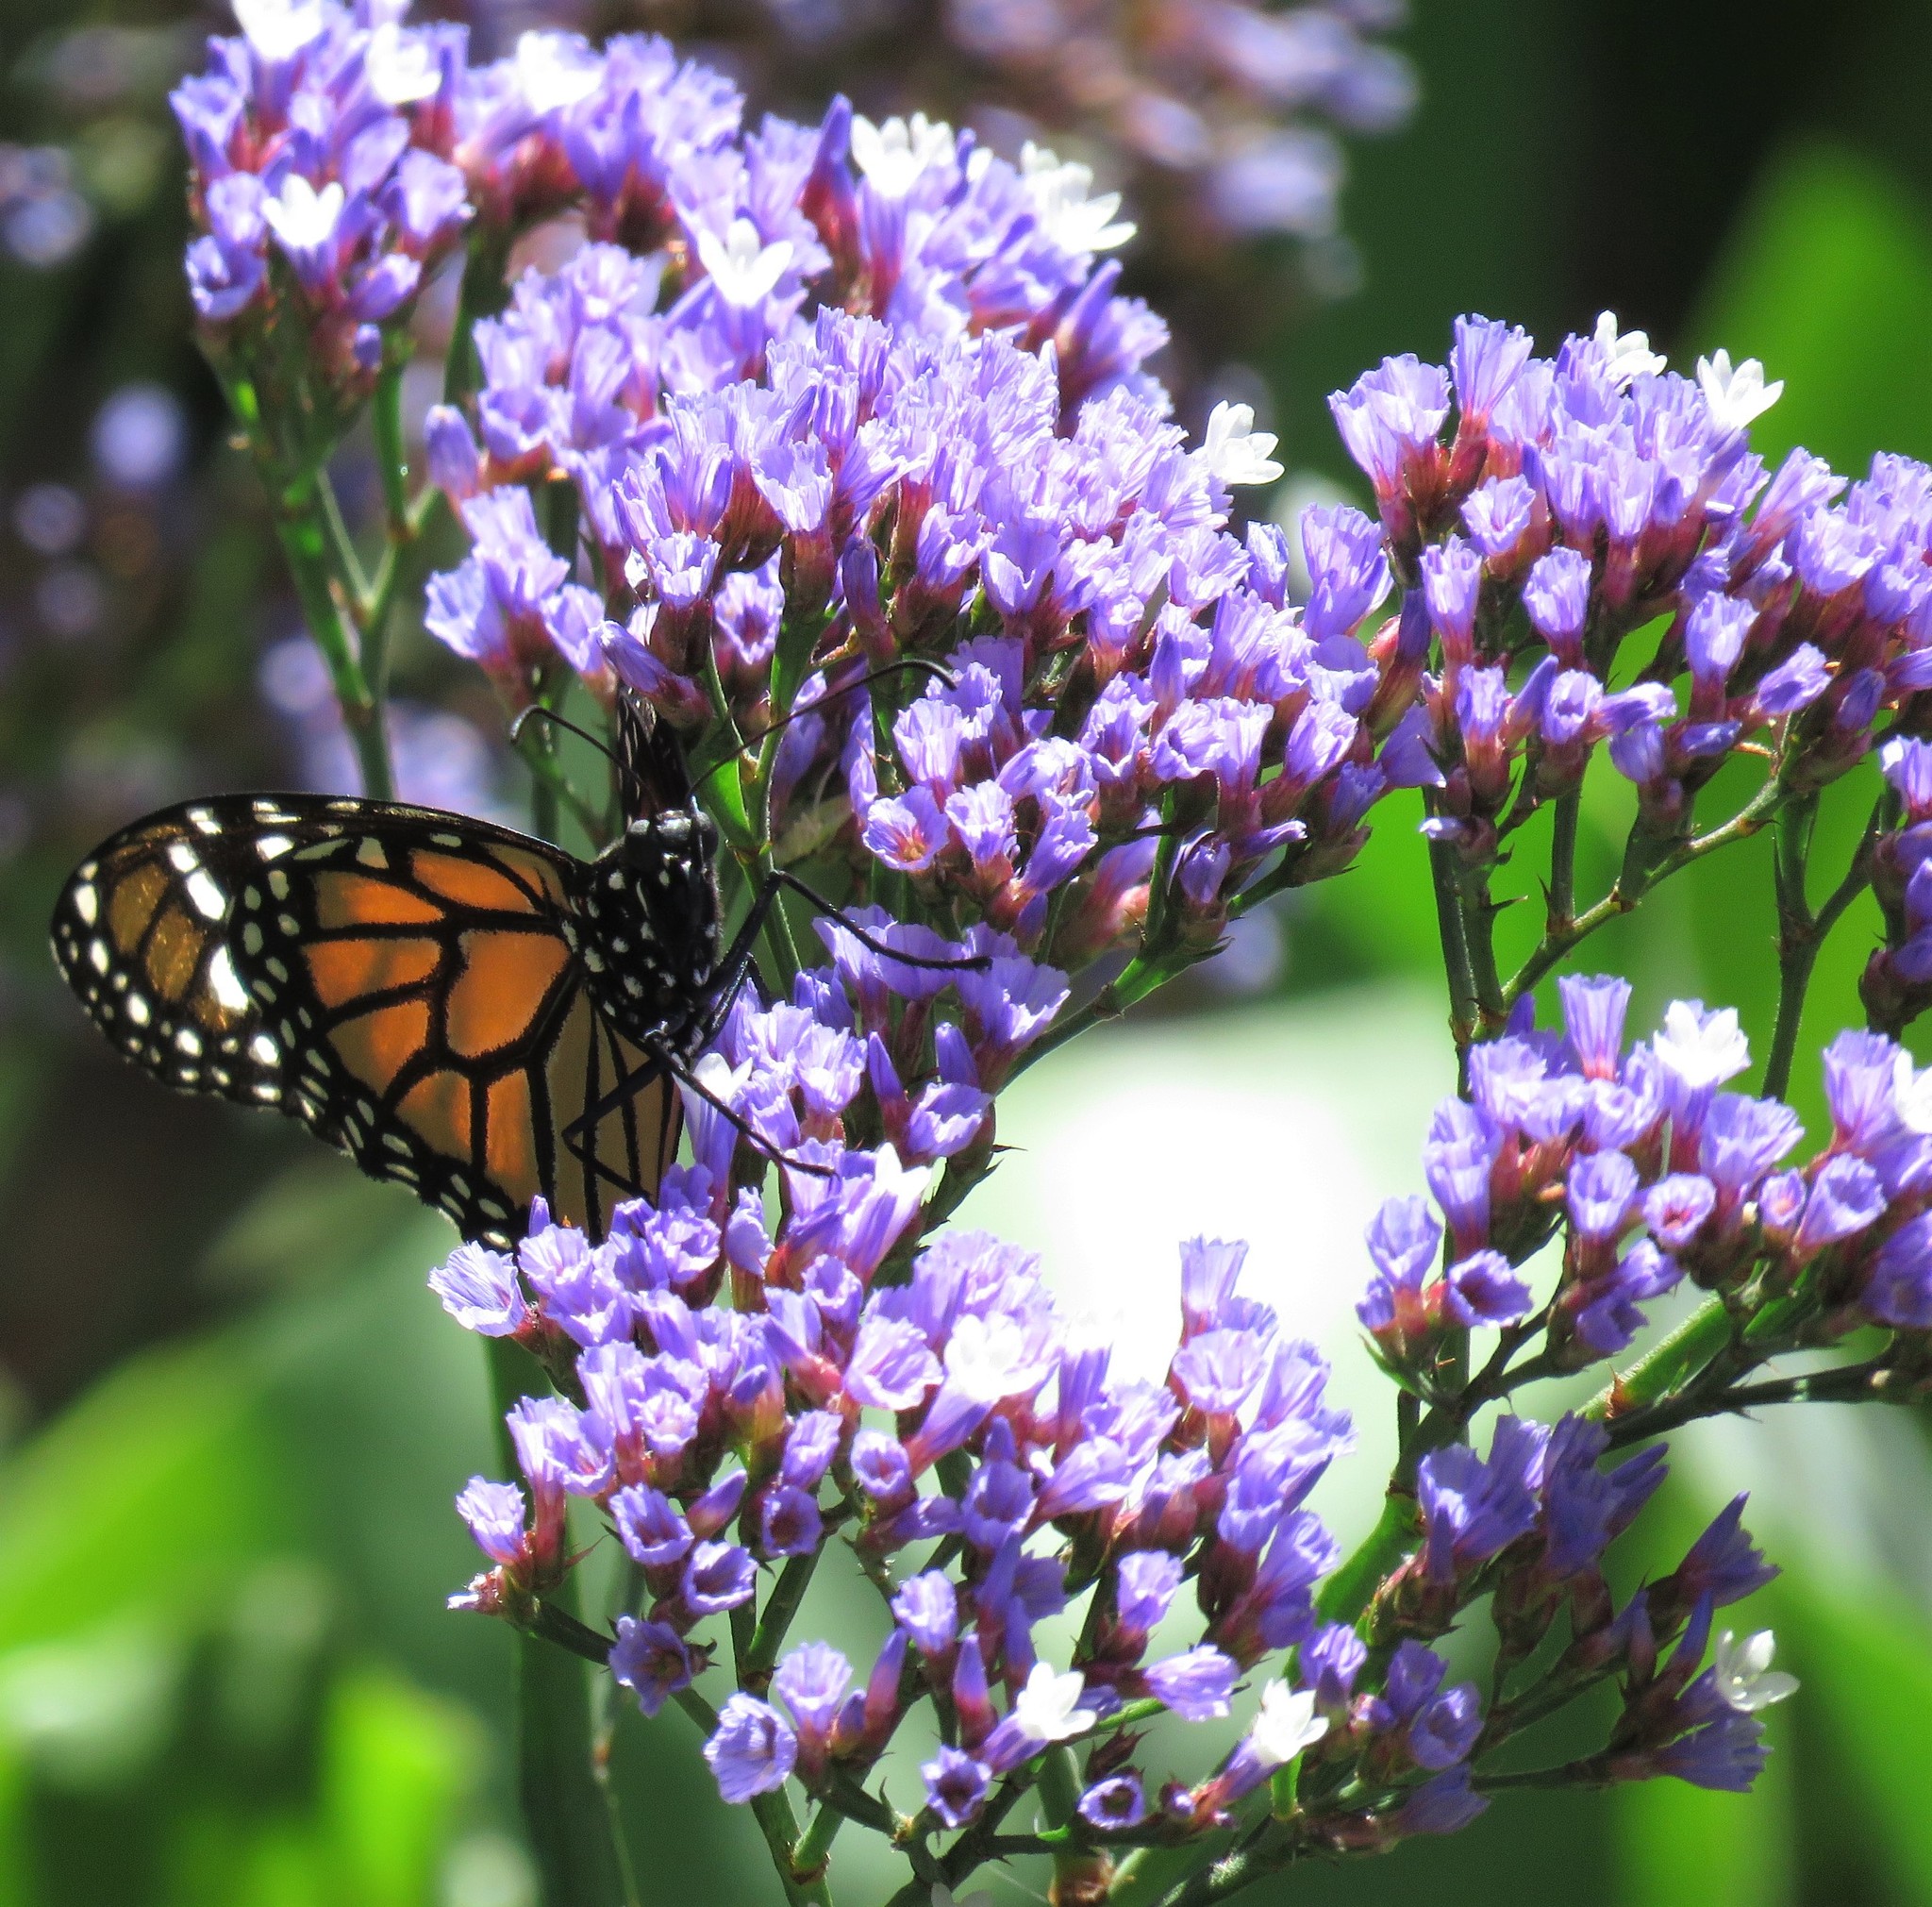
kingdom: Animalia
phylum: Arthropoda
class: Insecta
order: Lepidoptera
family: Nymphalidae
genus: Danaus
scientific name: Danaus plexippus
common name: Monarch
